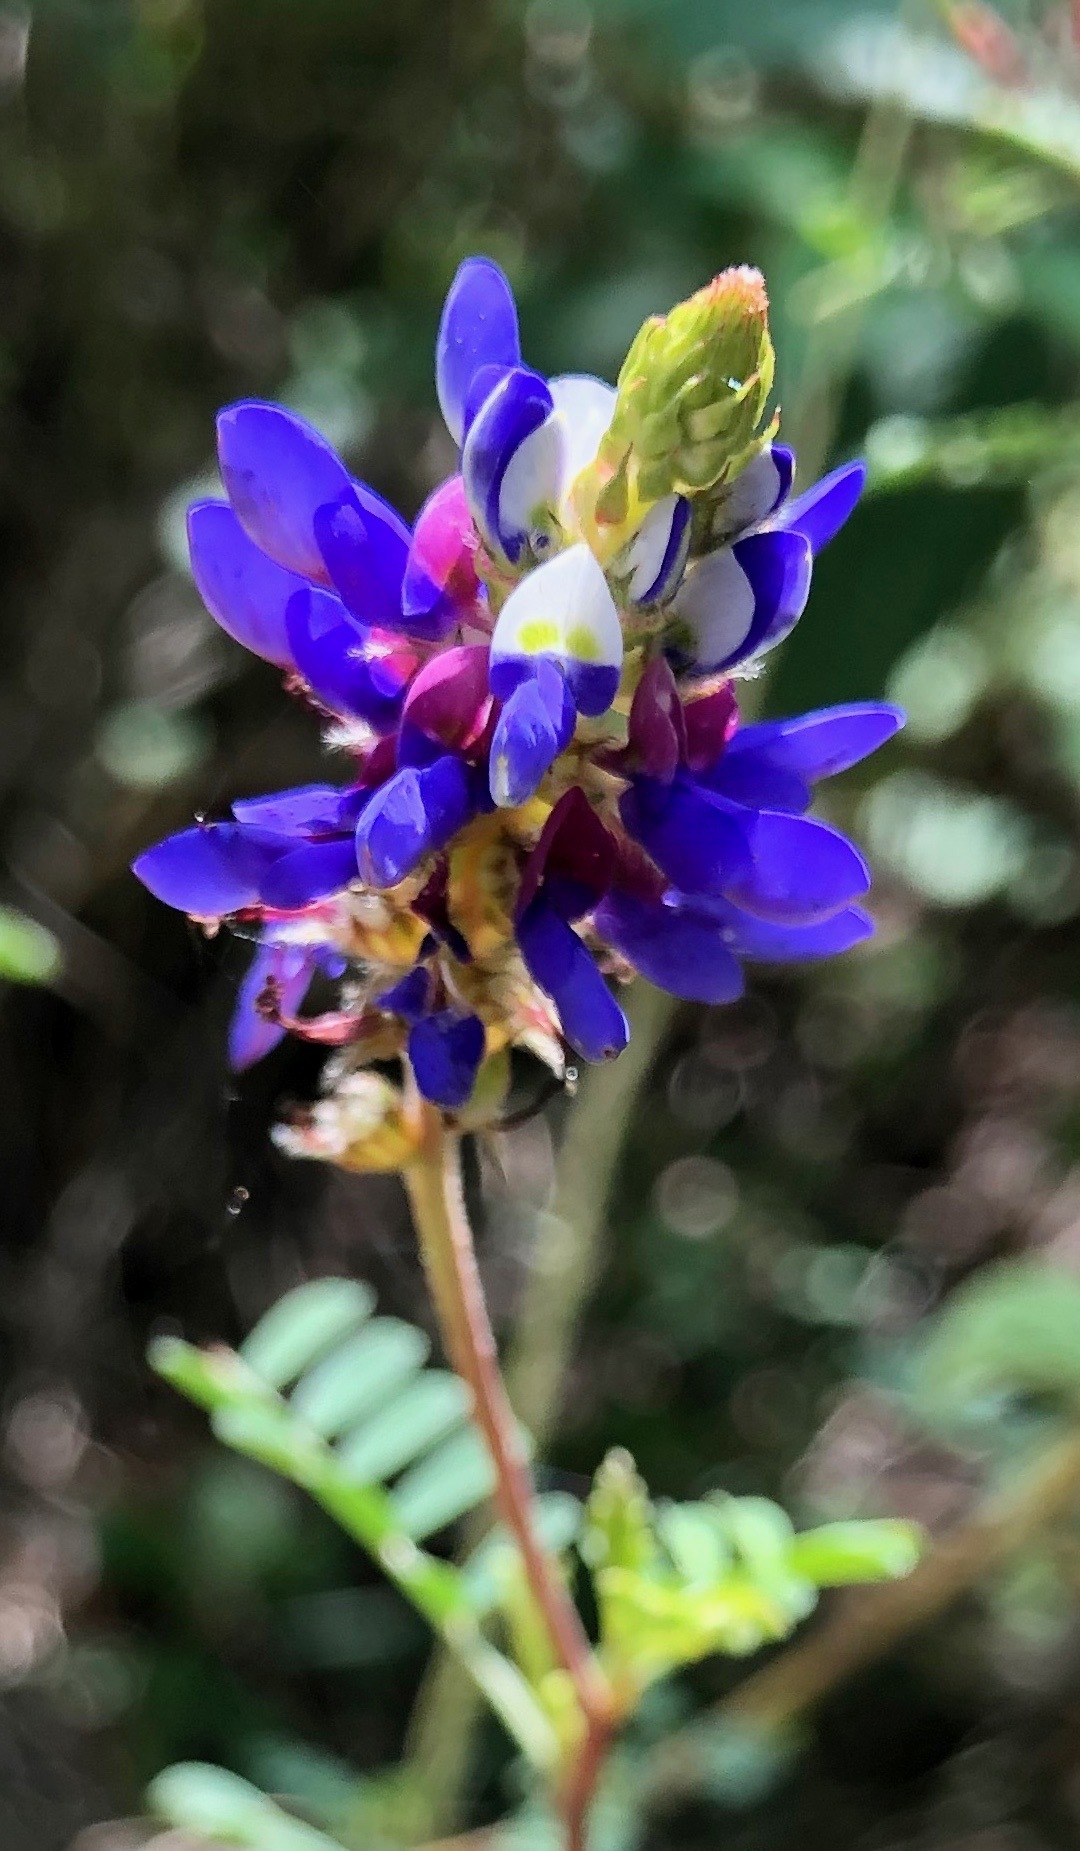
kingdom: Plantae
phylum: Tracheophyta
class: Magnoliopsida
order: Fabales
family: Fabaceae
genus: Dalea
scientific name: Dalea coerulea
